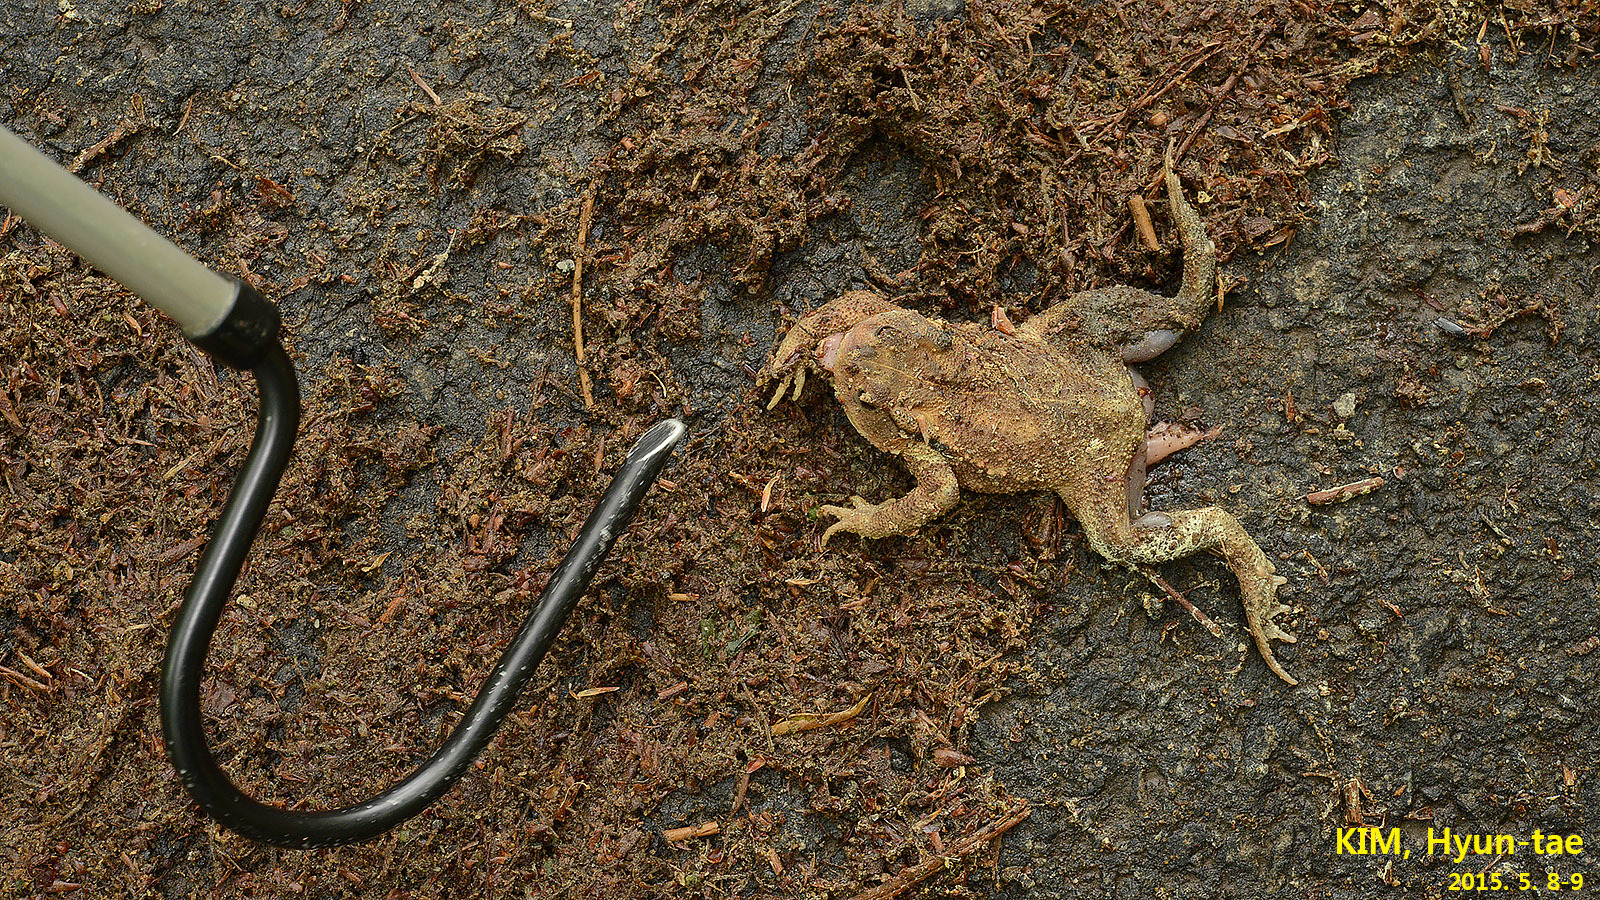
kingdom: Animalia
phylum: Chordata
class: Amphibia
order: Anura
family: Bufonidae
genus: Bufo
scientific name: Bufo gargarizans
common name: Asiatic toad
